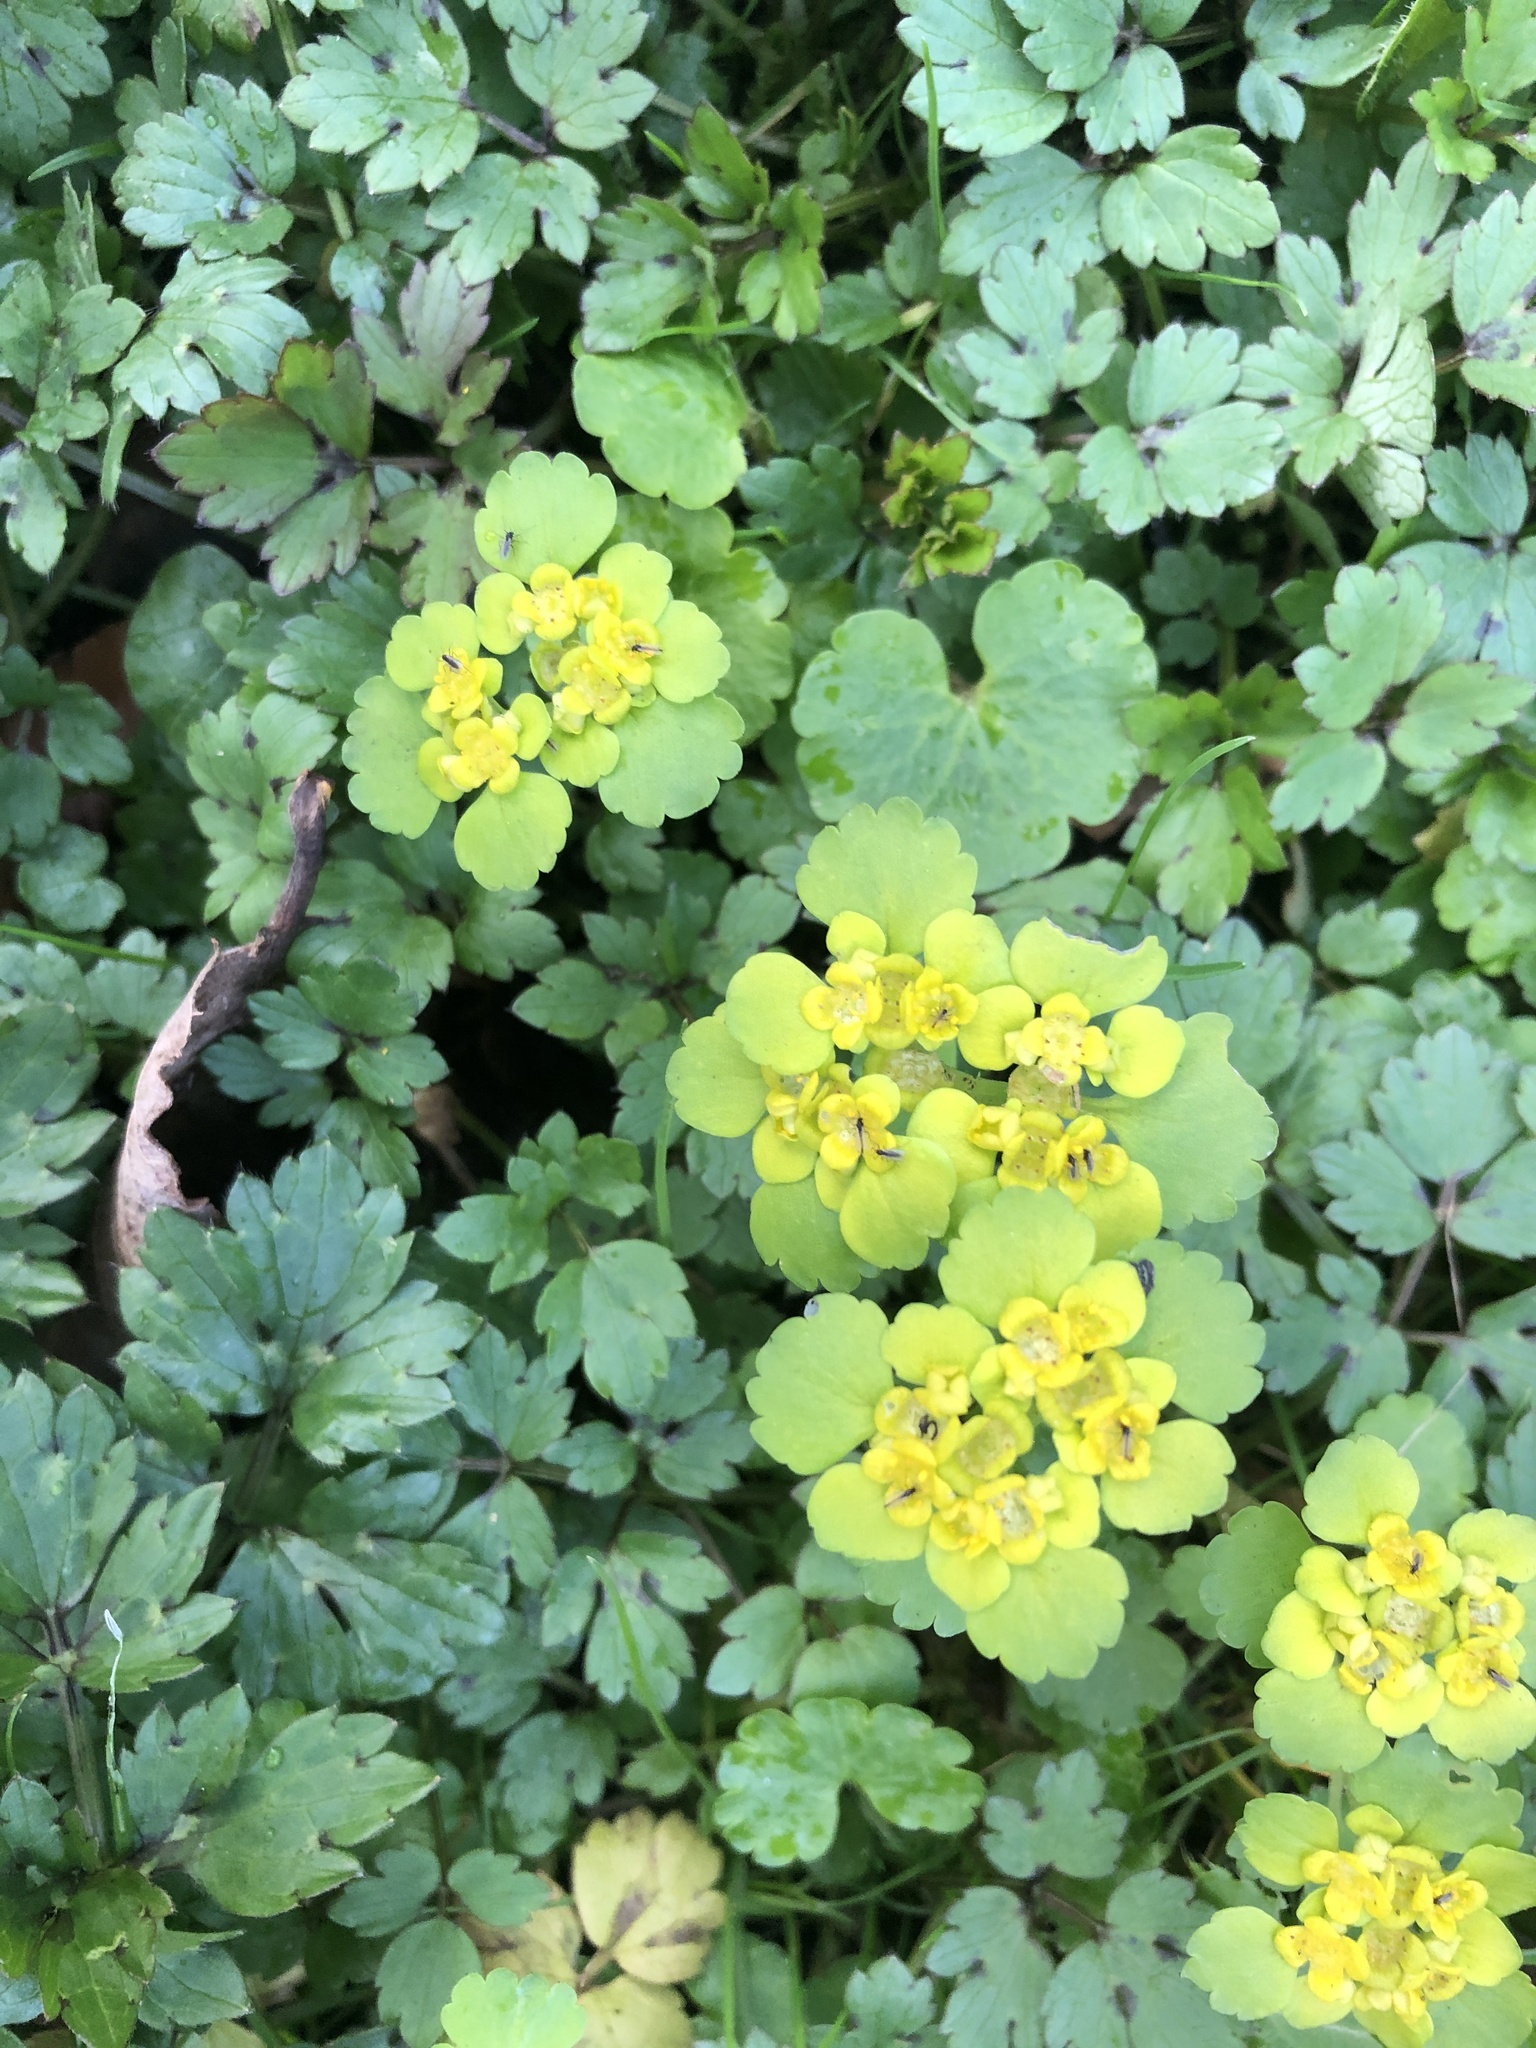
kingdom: Plantae
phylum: Tracheophyta
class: Magnoliopsida
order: Saxifragales
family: Saxifragaceae
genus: Chrysosplenium
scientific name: Chrysosplenium alternifolium
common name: Alternate-leaved golden-saxifrage
